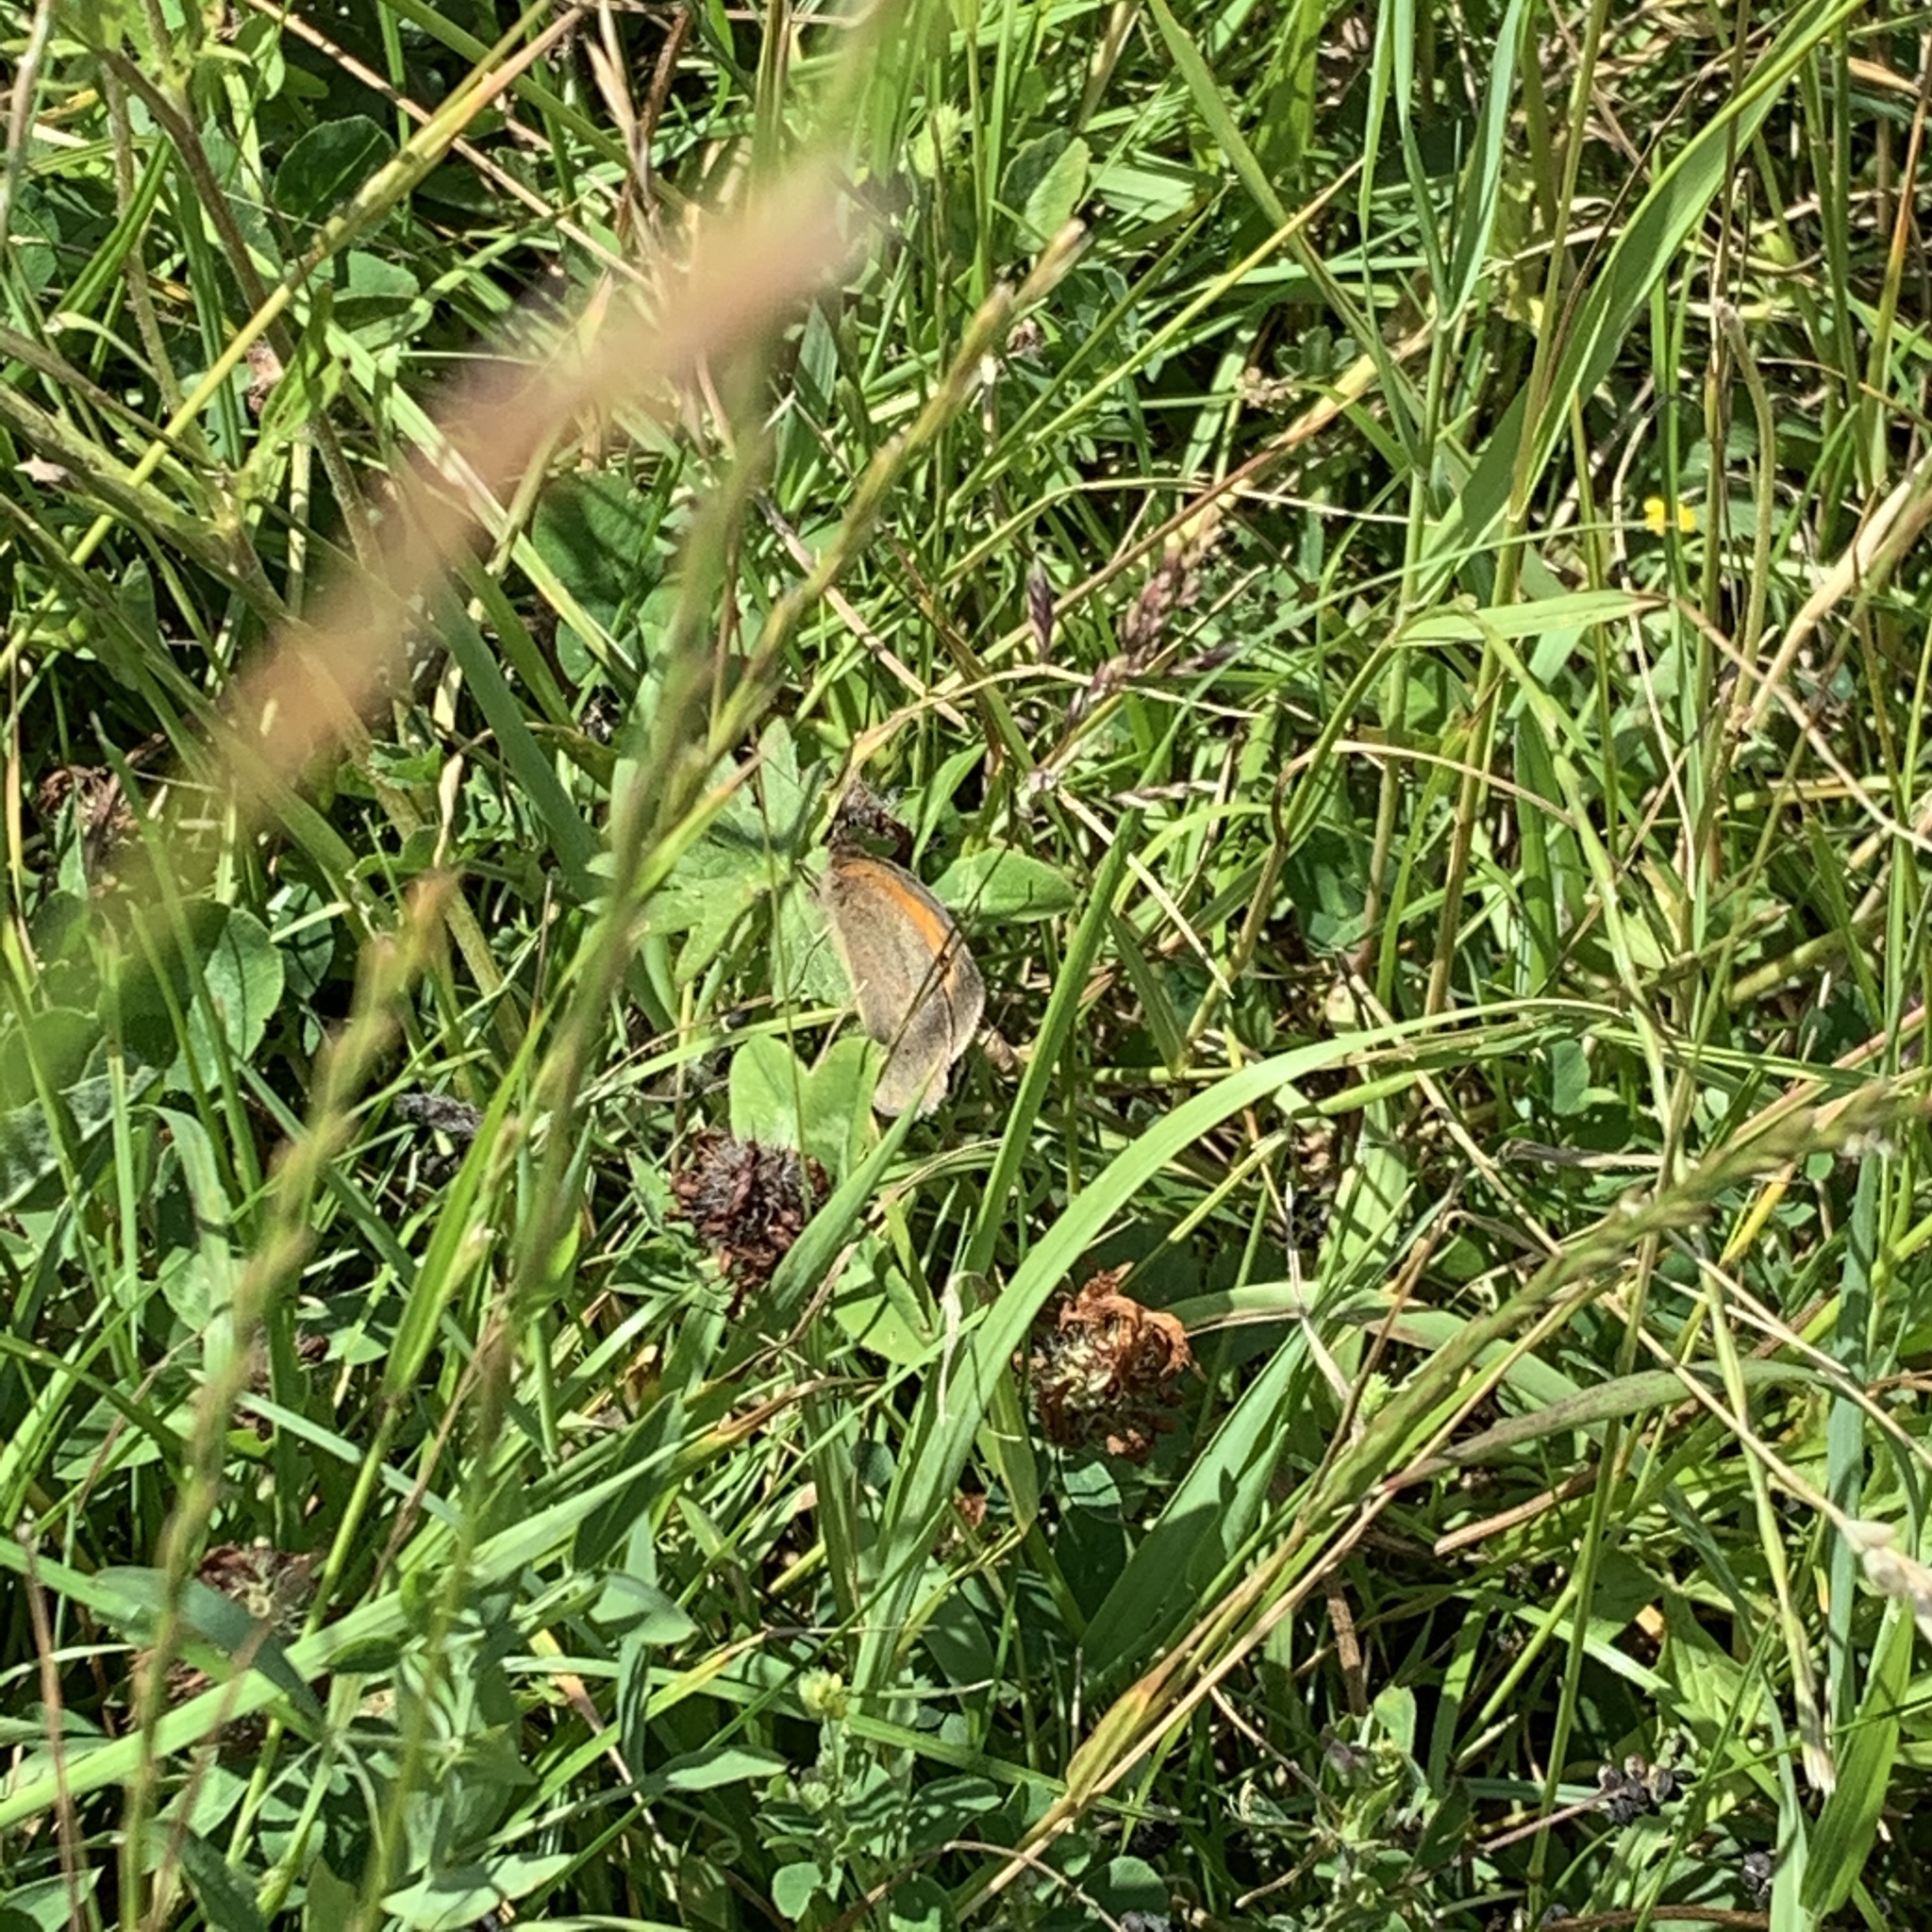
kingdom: Animalia
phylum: Arthropoda
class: Insecta
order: Lepidoptera
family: Nymphalidae
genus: Maniola
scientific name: Maniola jurtina
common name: Meadow brown
